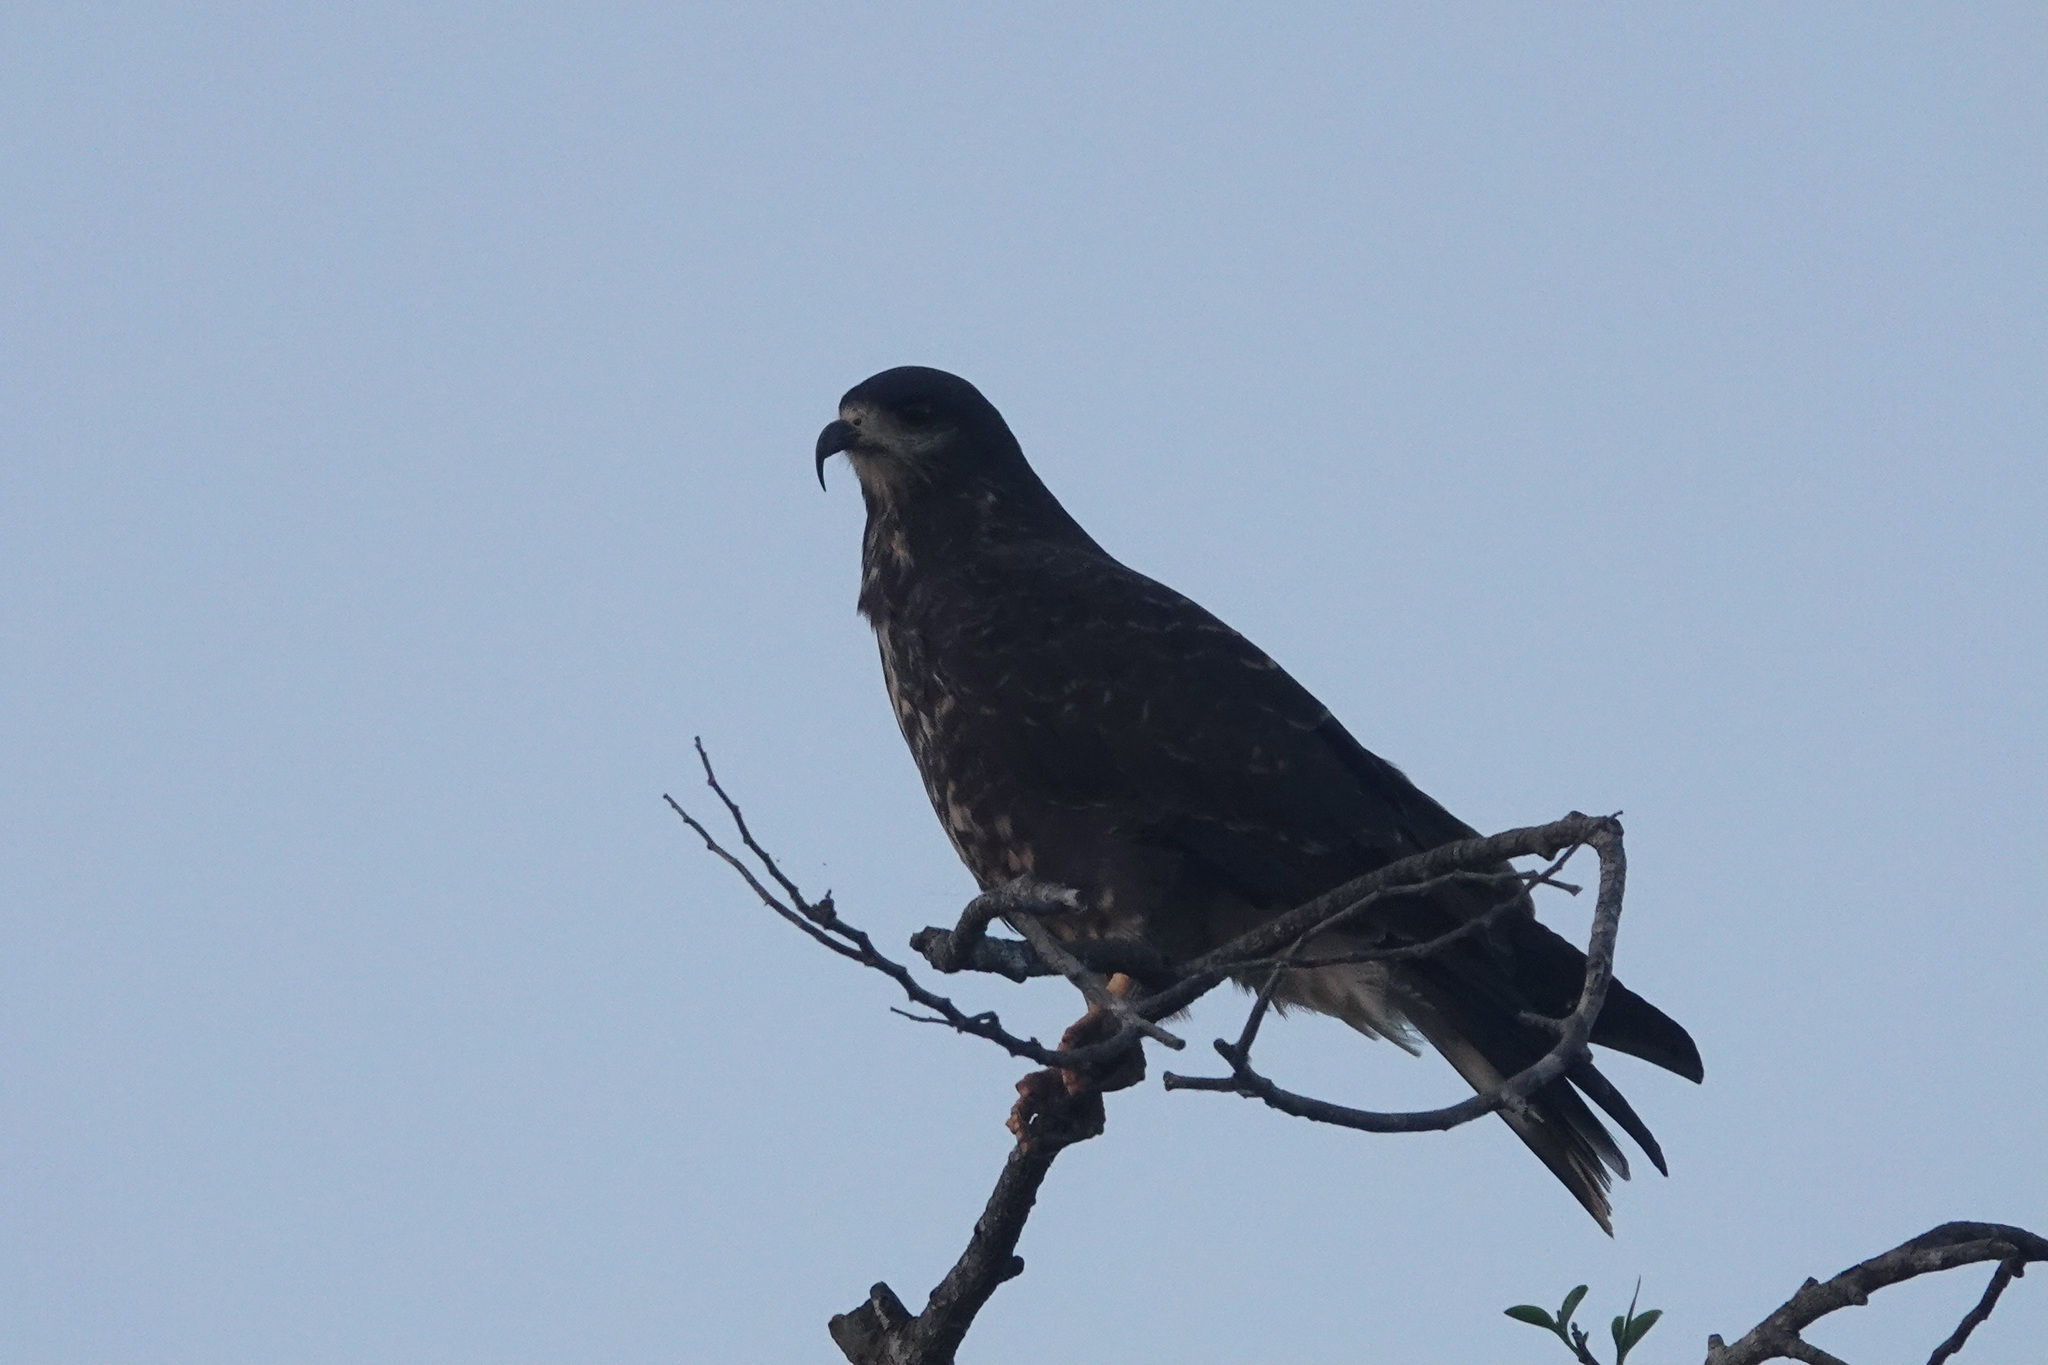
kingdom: Animalia
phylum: Chordata
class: Aves
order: Accipitriformes
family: Accipitridae
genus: Rostrhamus
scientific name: Rostrhamus sociabilis
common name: Snail kite
